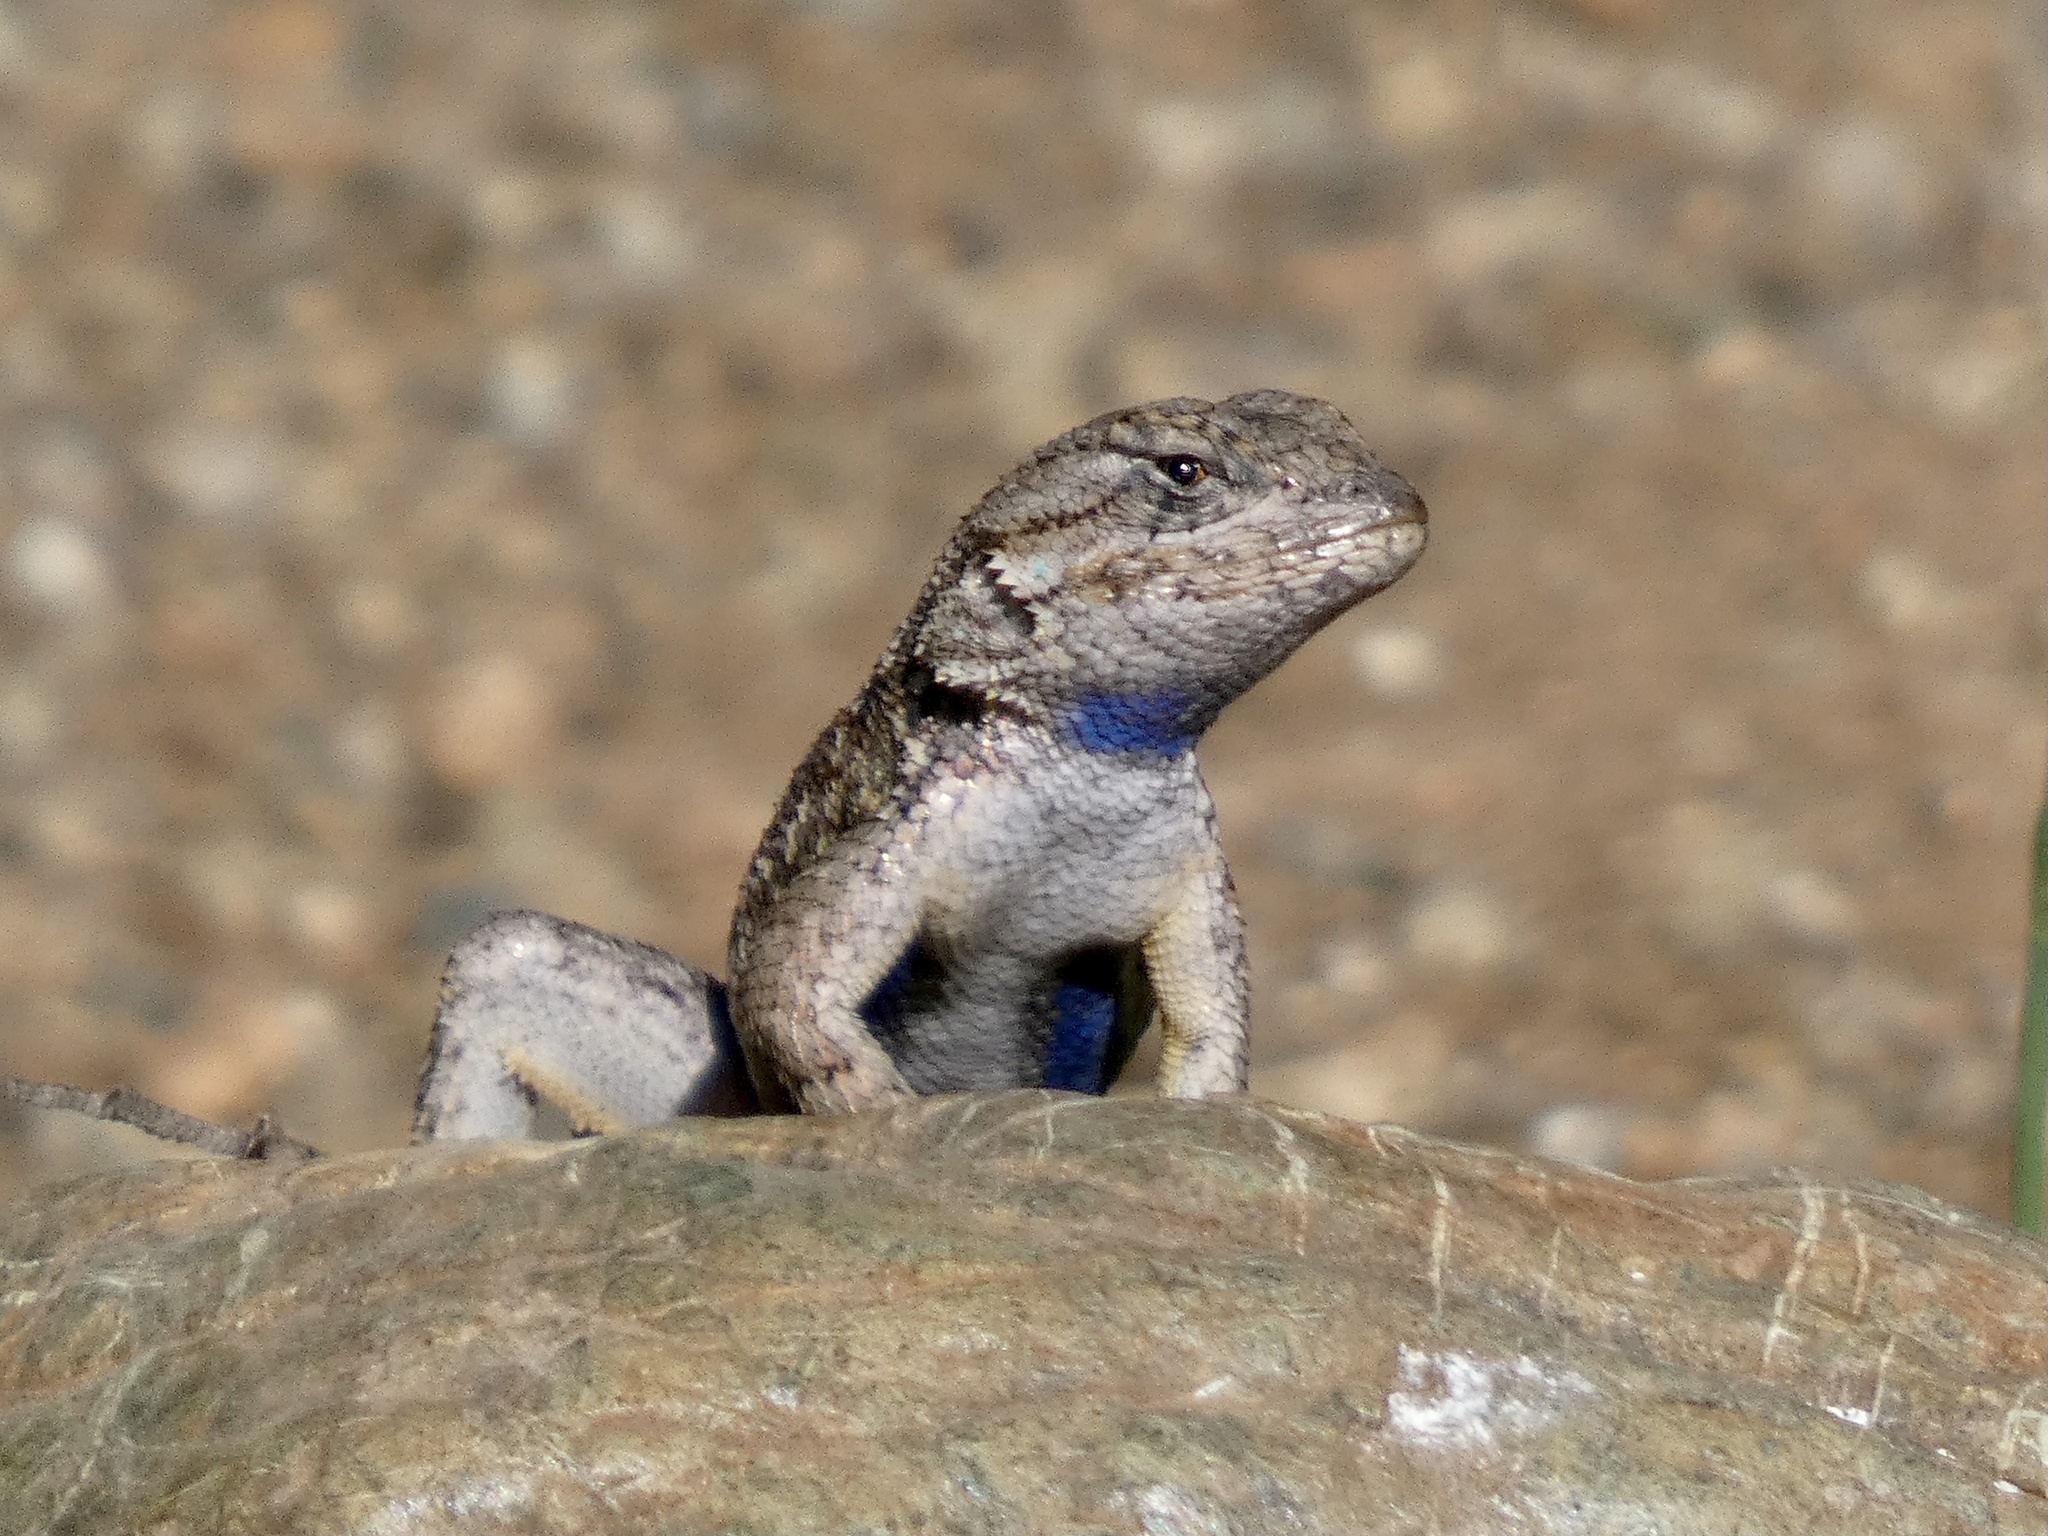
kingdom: Animalia
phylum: Chordata
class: Squamata
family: Phrynosomatidae
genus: Sceloporus
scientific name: Sceloporus occidentalis
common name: Western fence lizard
